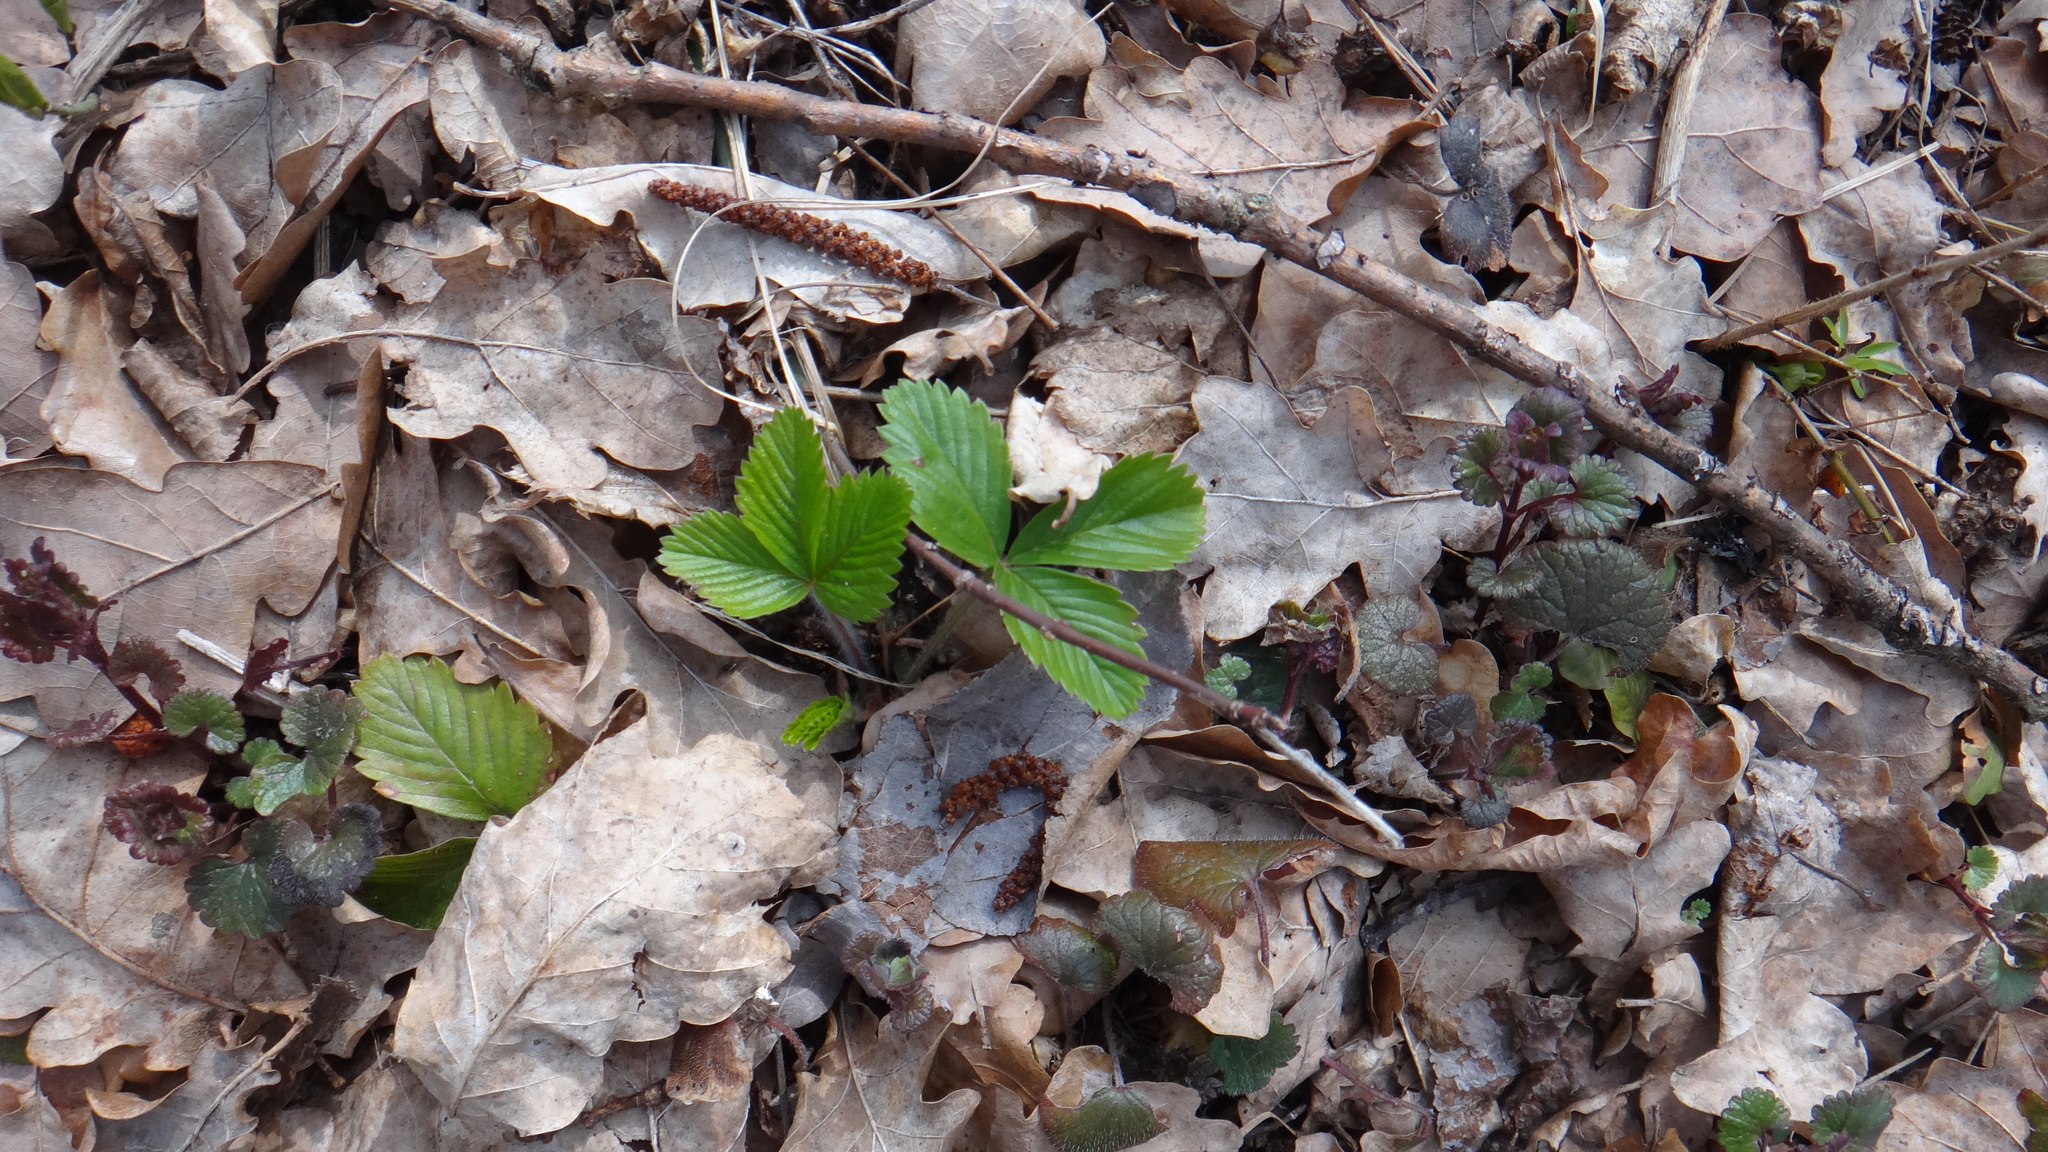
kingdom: Plantae
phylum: Tracheophyta
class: Magnoliopsida
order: Rosales
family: Rosaceae
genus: Fragaria
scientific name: Fragaria viridis
